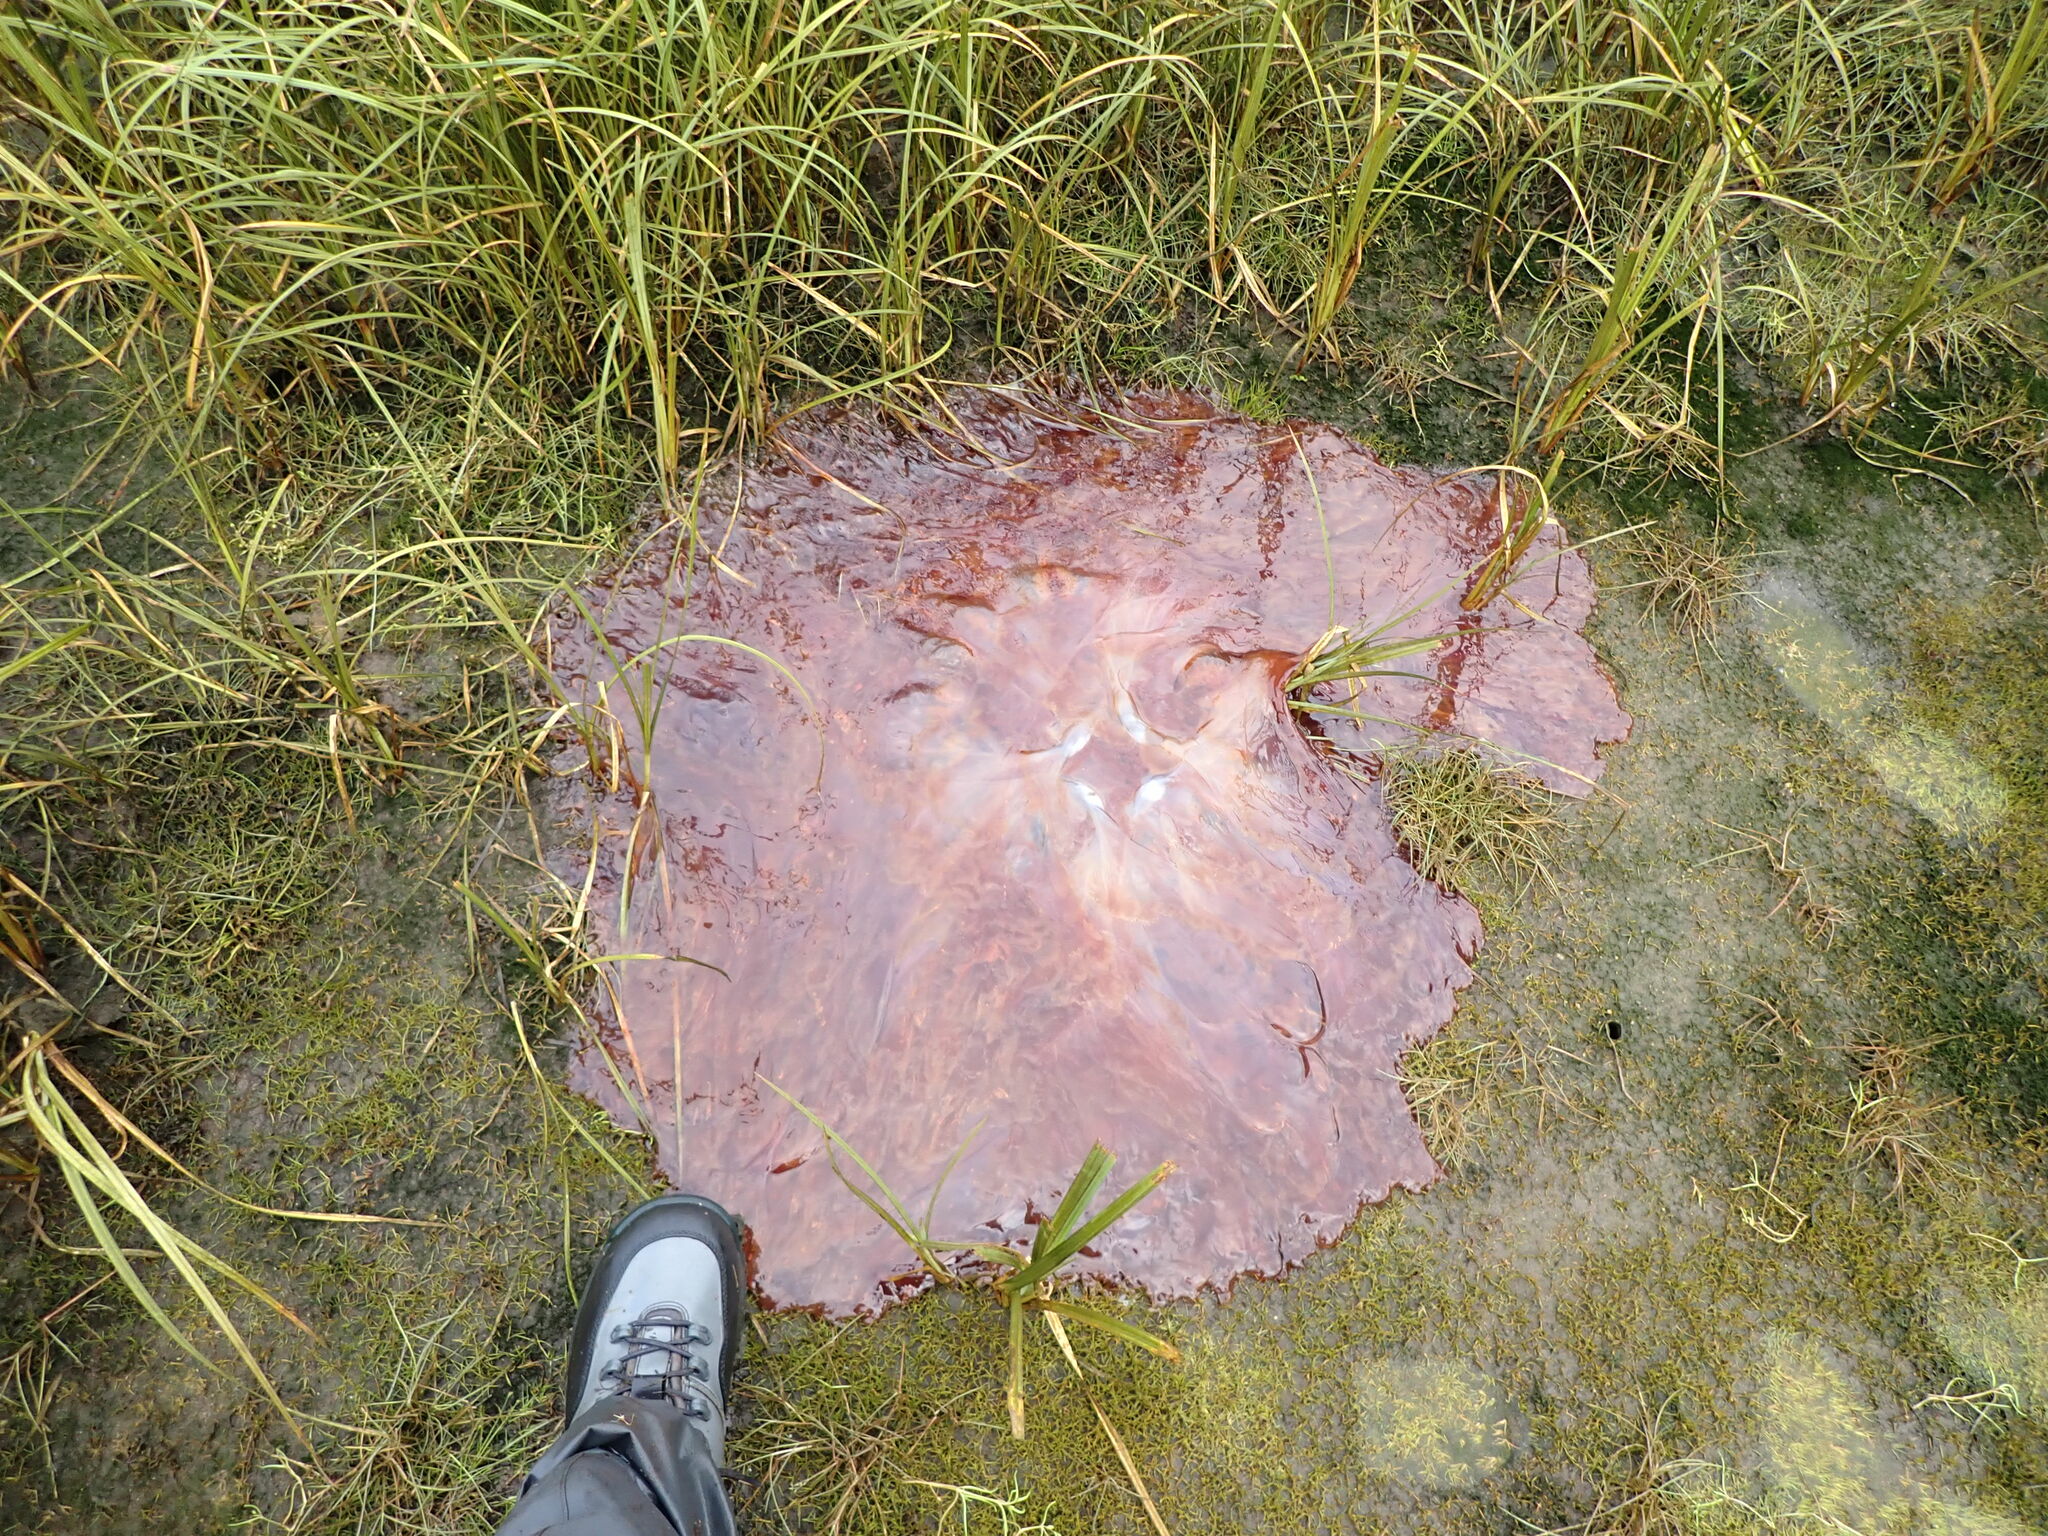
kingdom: Animalia
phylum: Cnidaria
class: Scyphozoa
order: Semaeostomeae
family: Cyaneidae
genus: Cyanea
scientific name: Cyanea ferruginea
